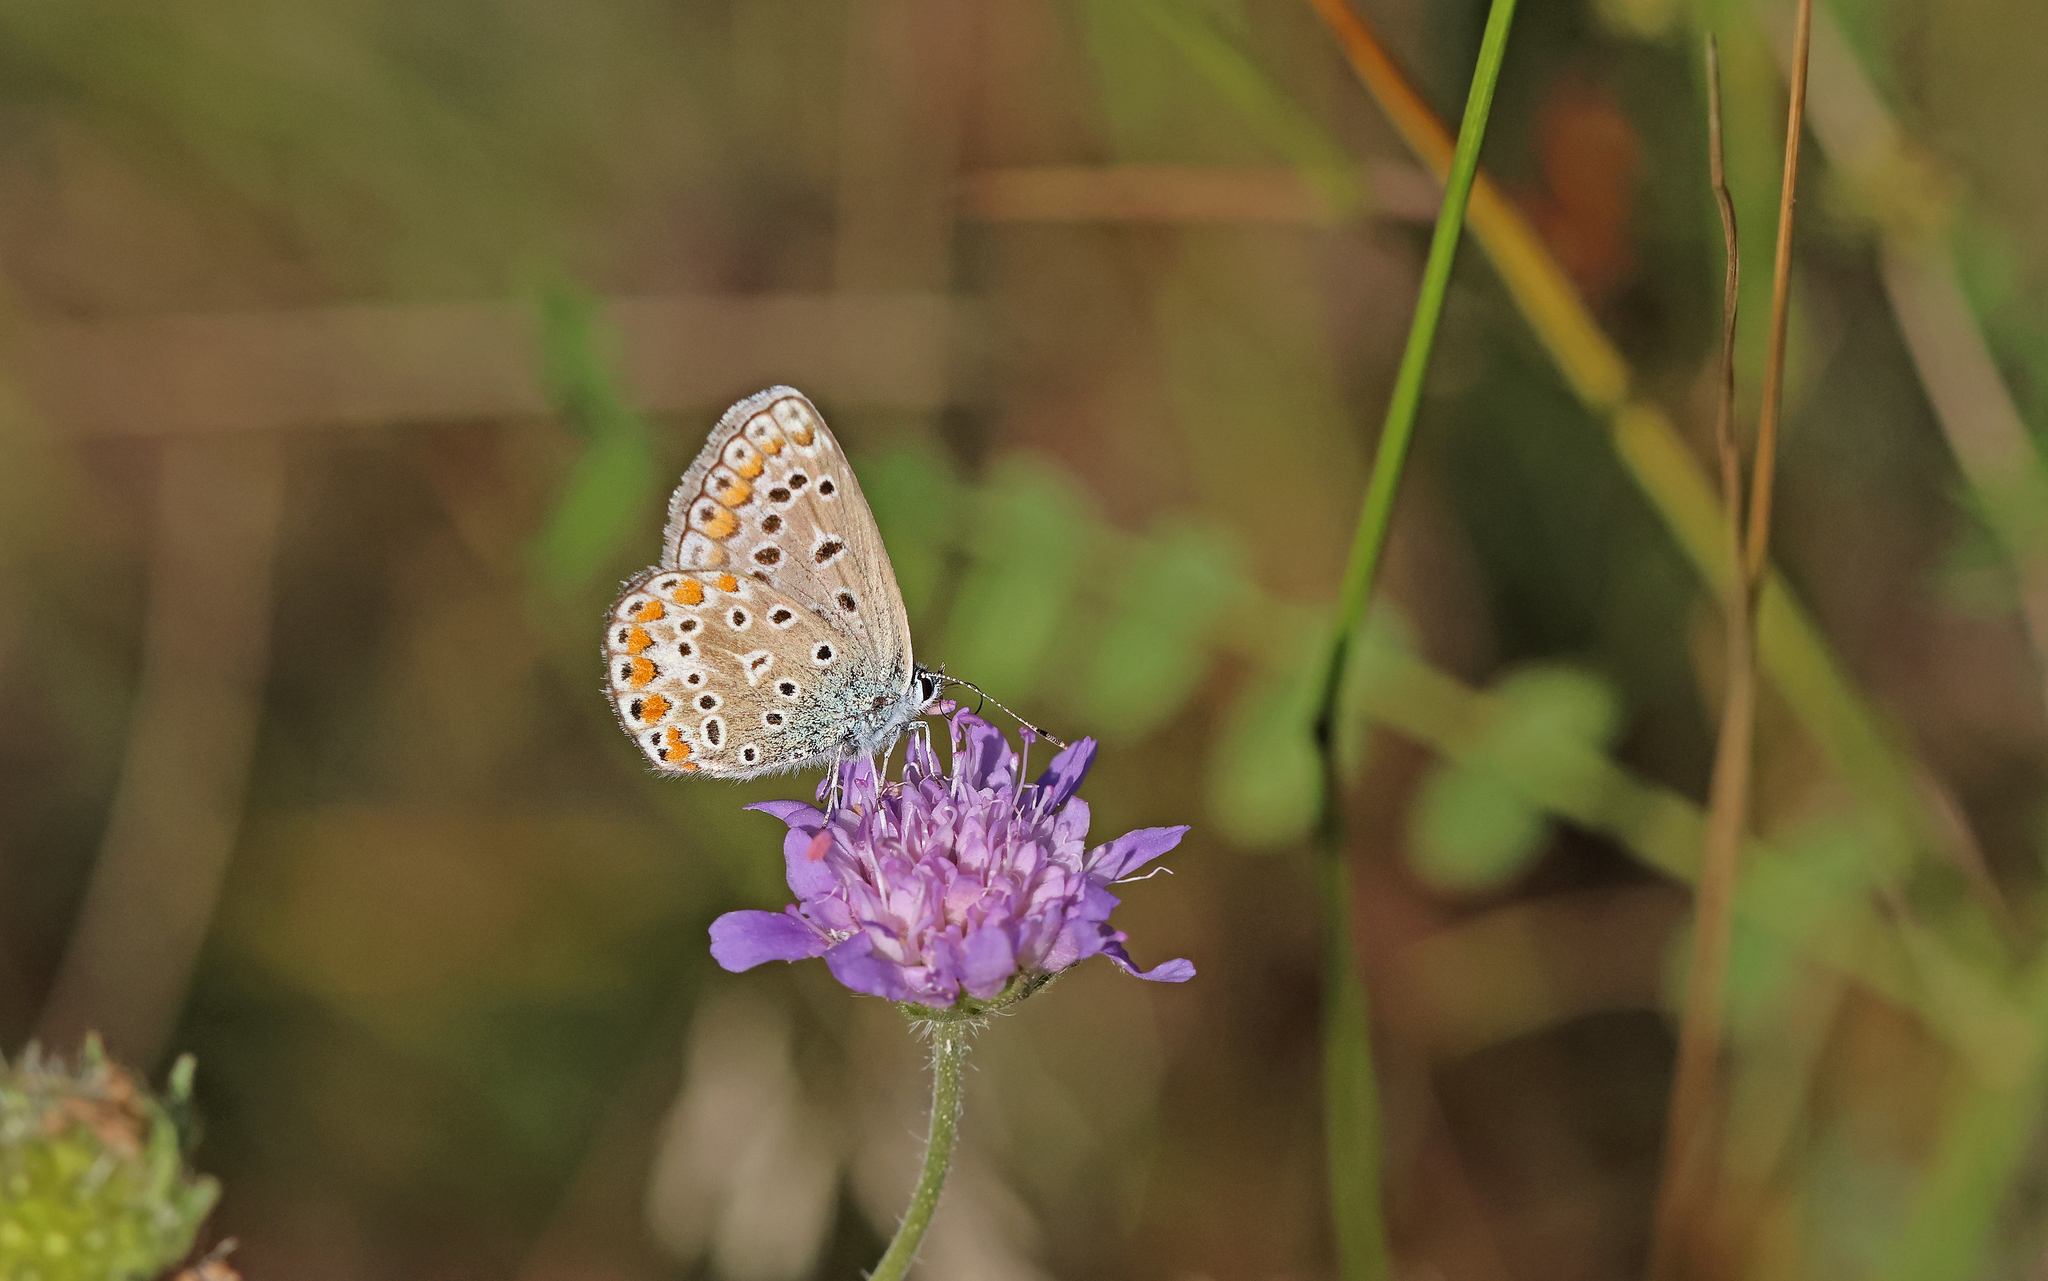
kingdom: Animalia
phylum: Arthropoda
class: Insecta
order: Lepidoptera
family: Lycaenidae
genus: Polyommatus
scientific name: Polyommatus icarus
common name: Common blue
